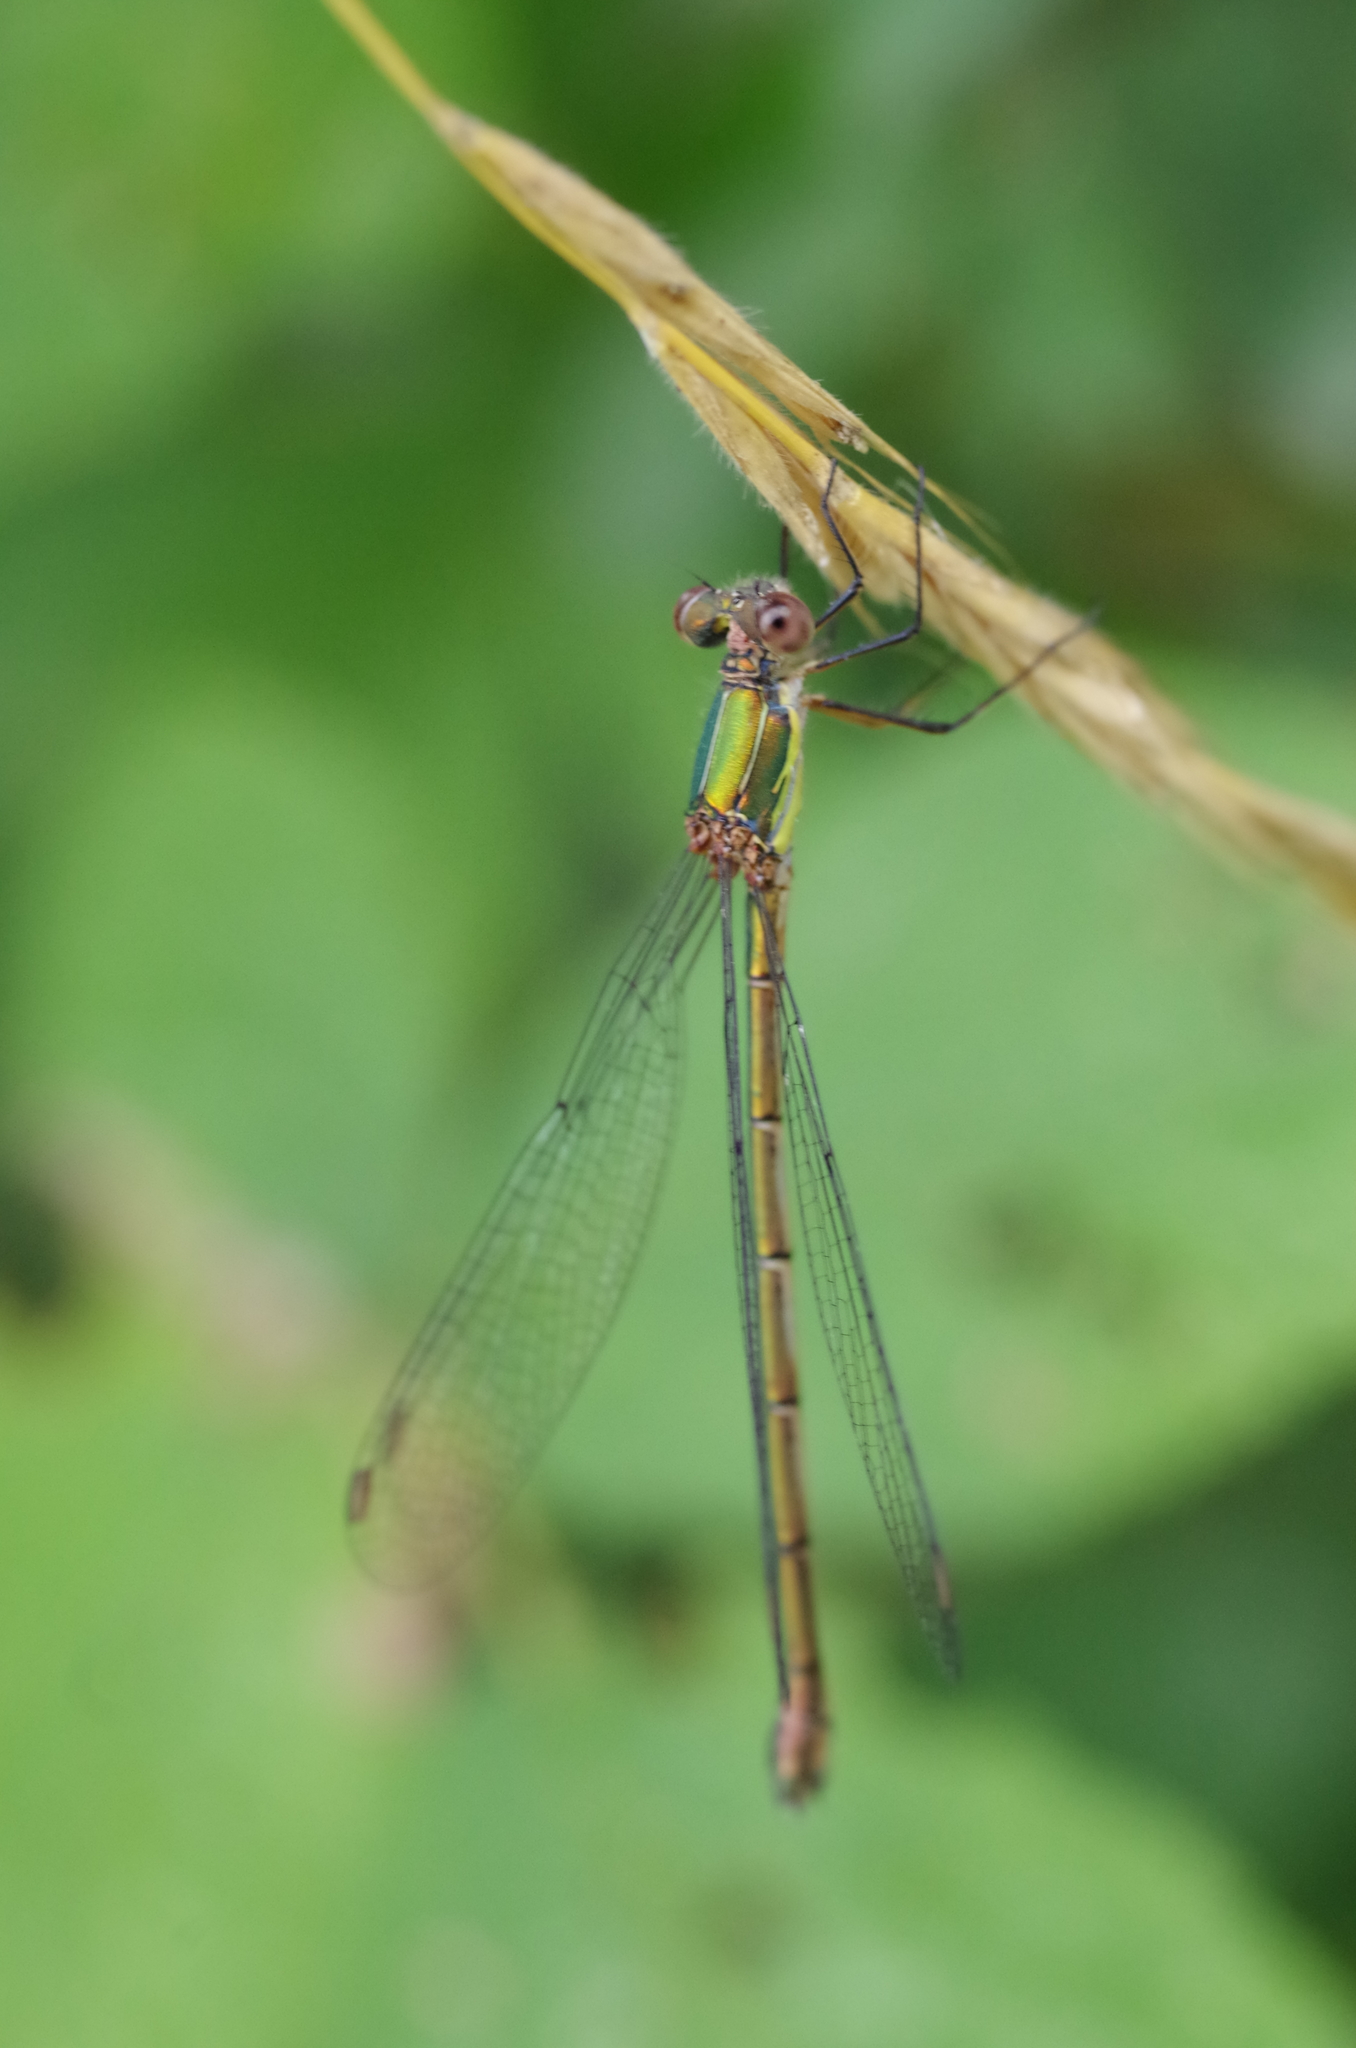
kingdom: Animalia
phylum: Arthropoda
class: Insecta
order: Odonata
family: Lestidae
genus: Chalcolestes
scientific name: Chalcolestes viridis
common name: Green emerald damselfly
